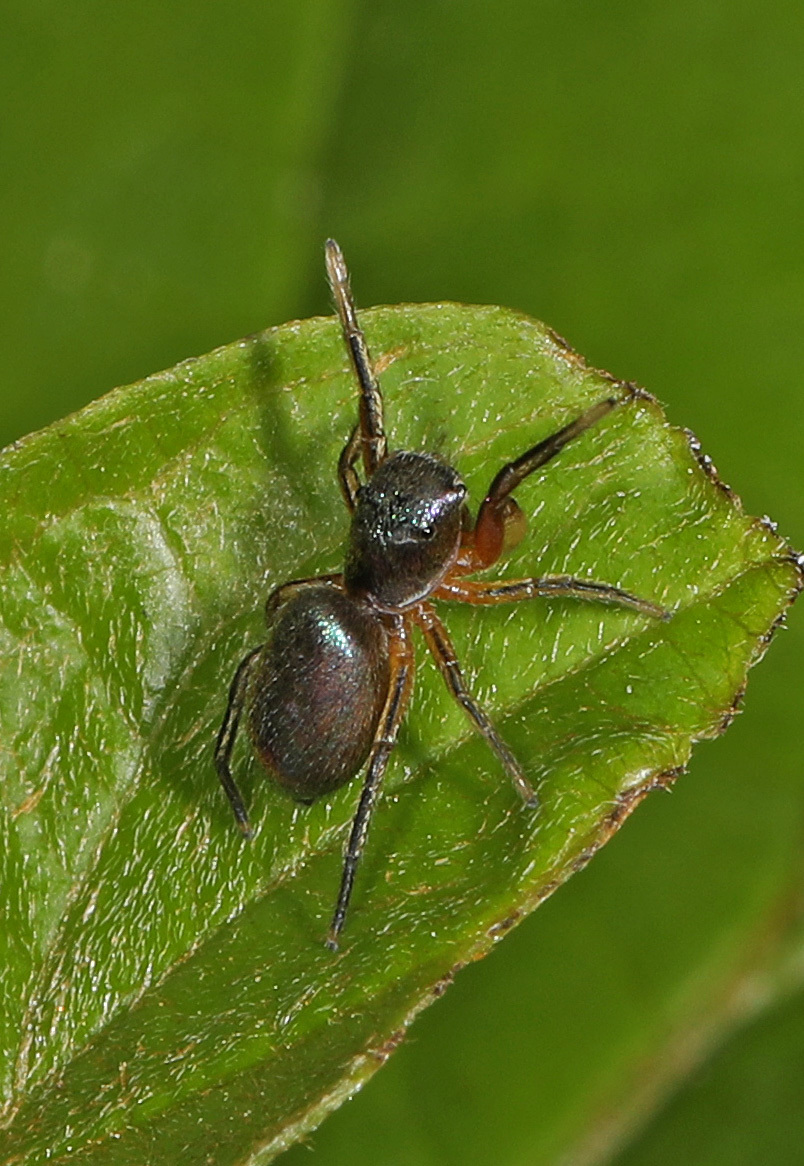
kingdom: Animalia
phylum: Arthropoda
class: Arachnida
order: Araneae
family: Salticidae
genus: Tutelina
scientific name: Tutelina similis
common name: Thick-spined jumping spider
